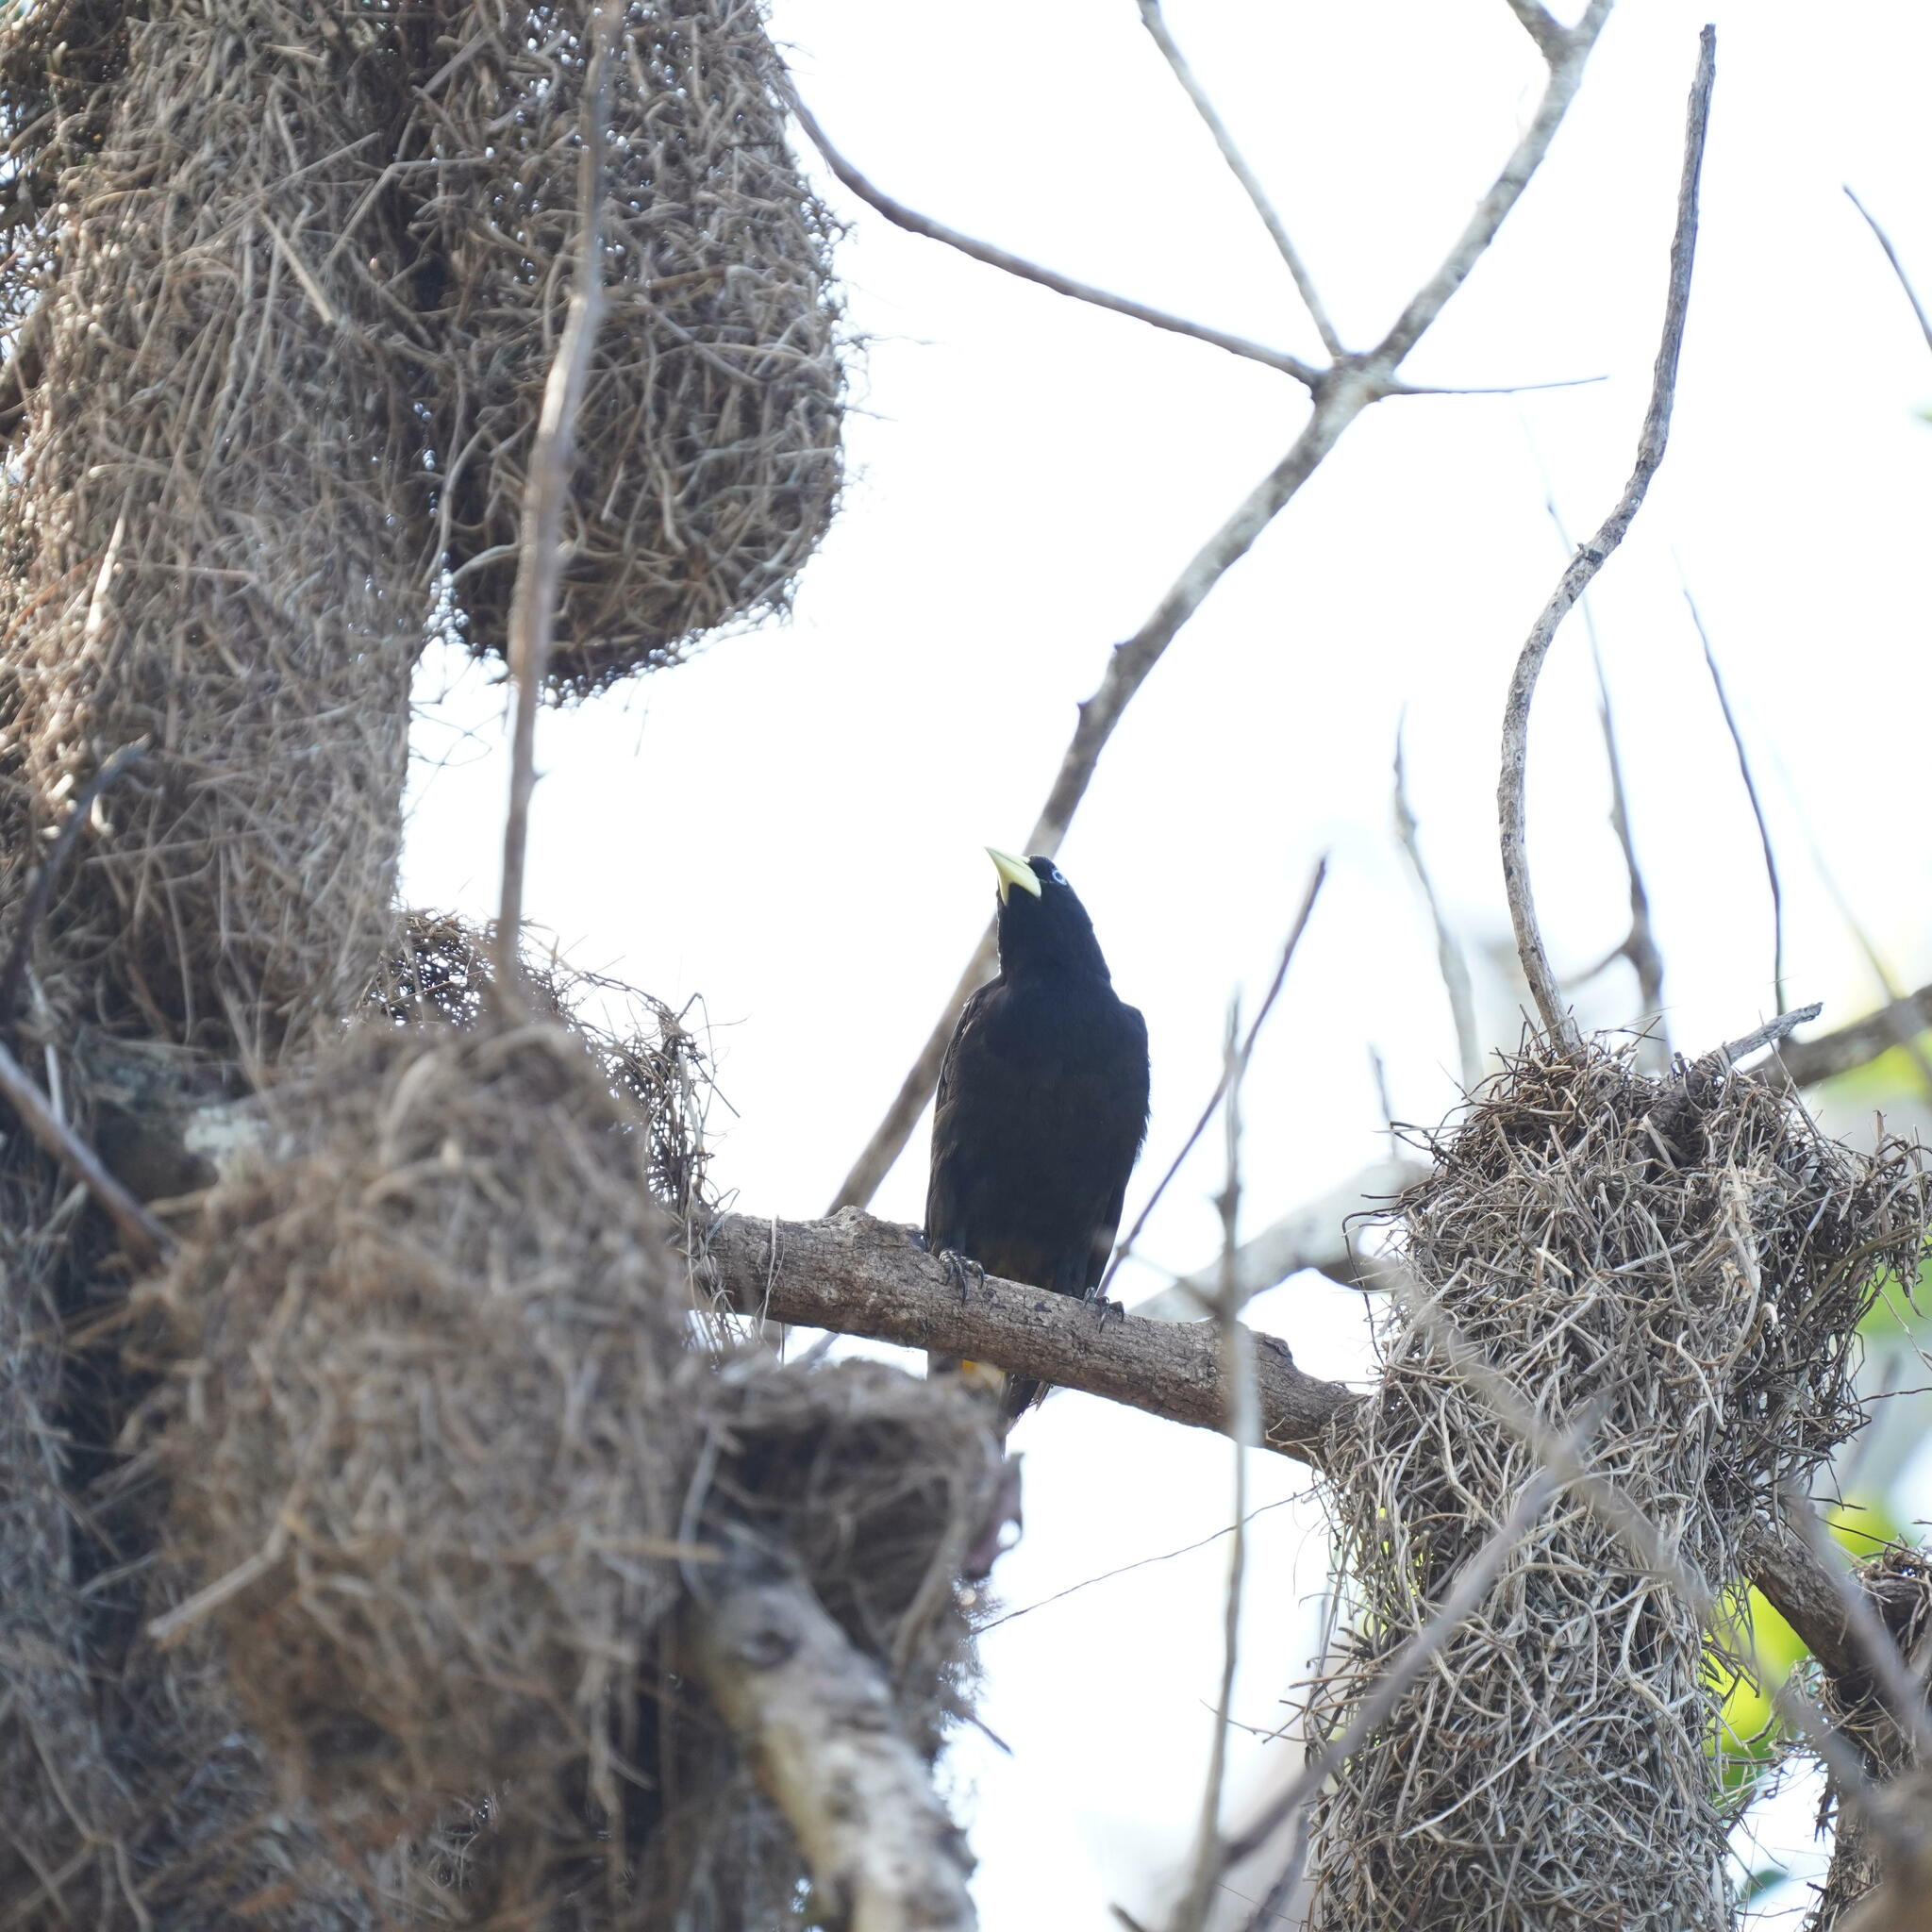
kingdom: Animalia
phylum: Chordata
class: Aves
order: Passeriformes
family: Icteridae
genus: Cacicus
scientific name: Cacicus cela
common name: Yellow-rumped cacique
